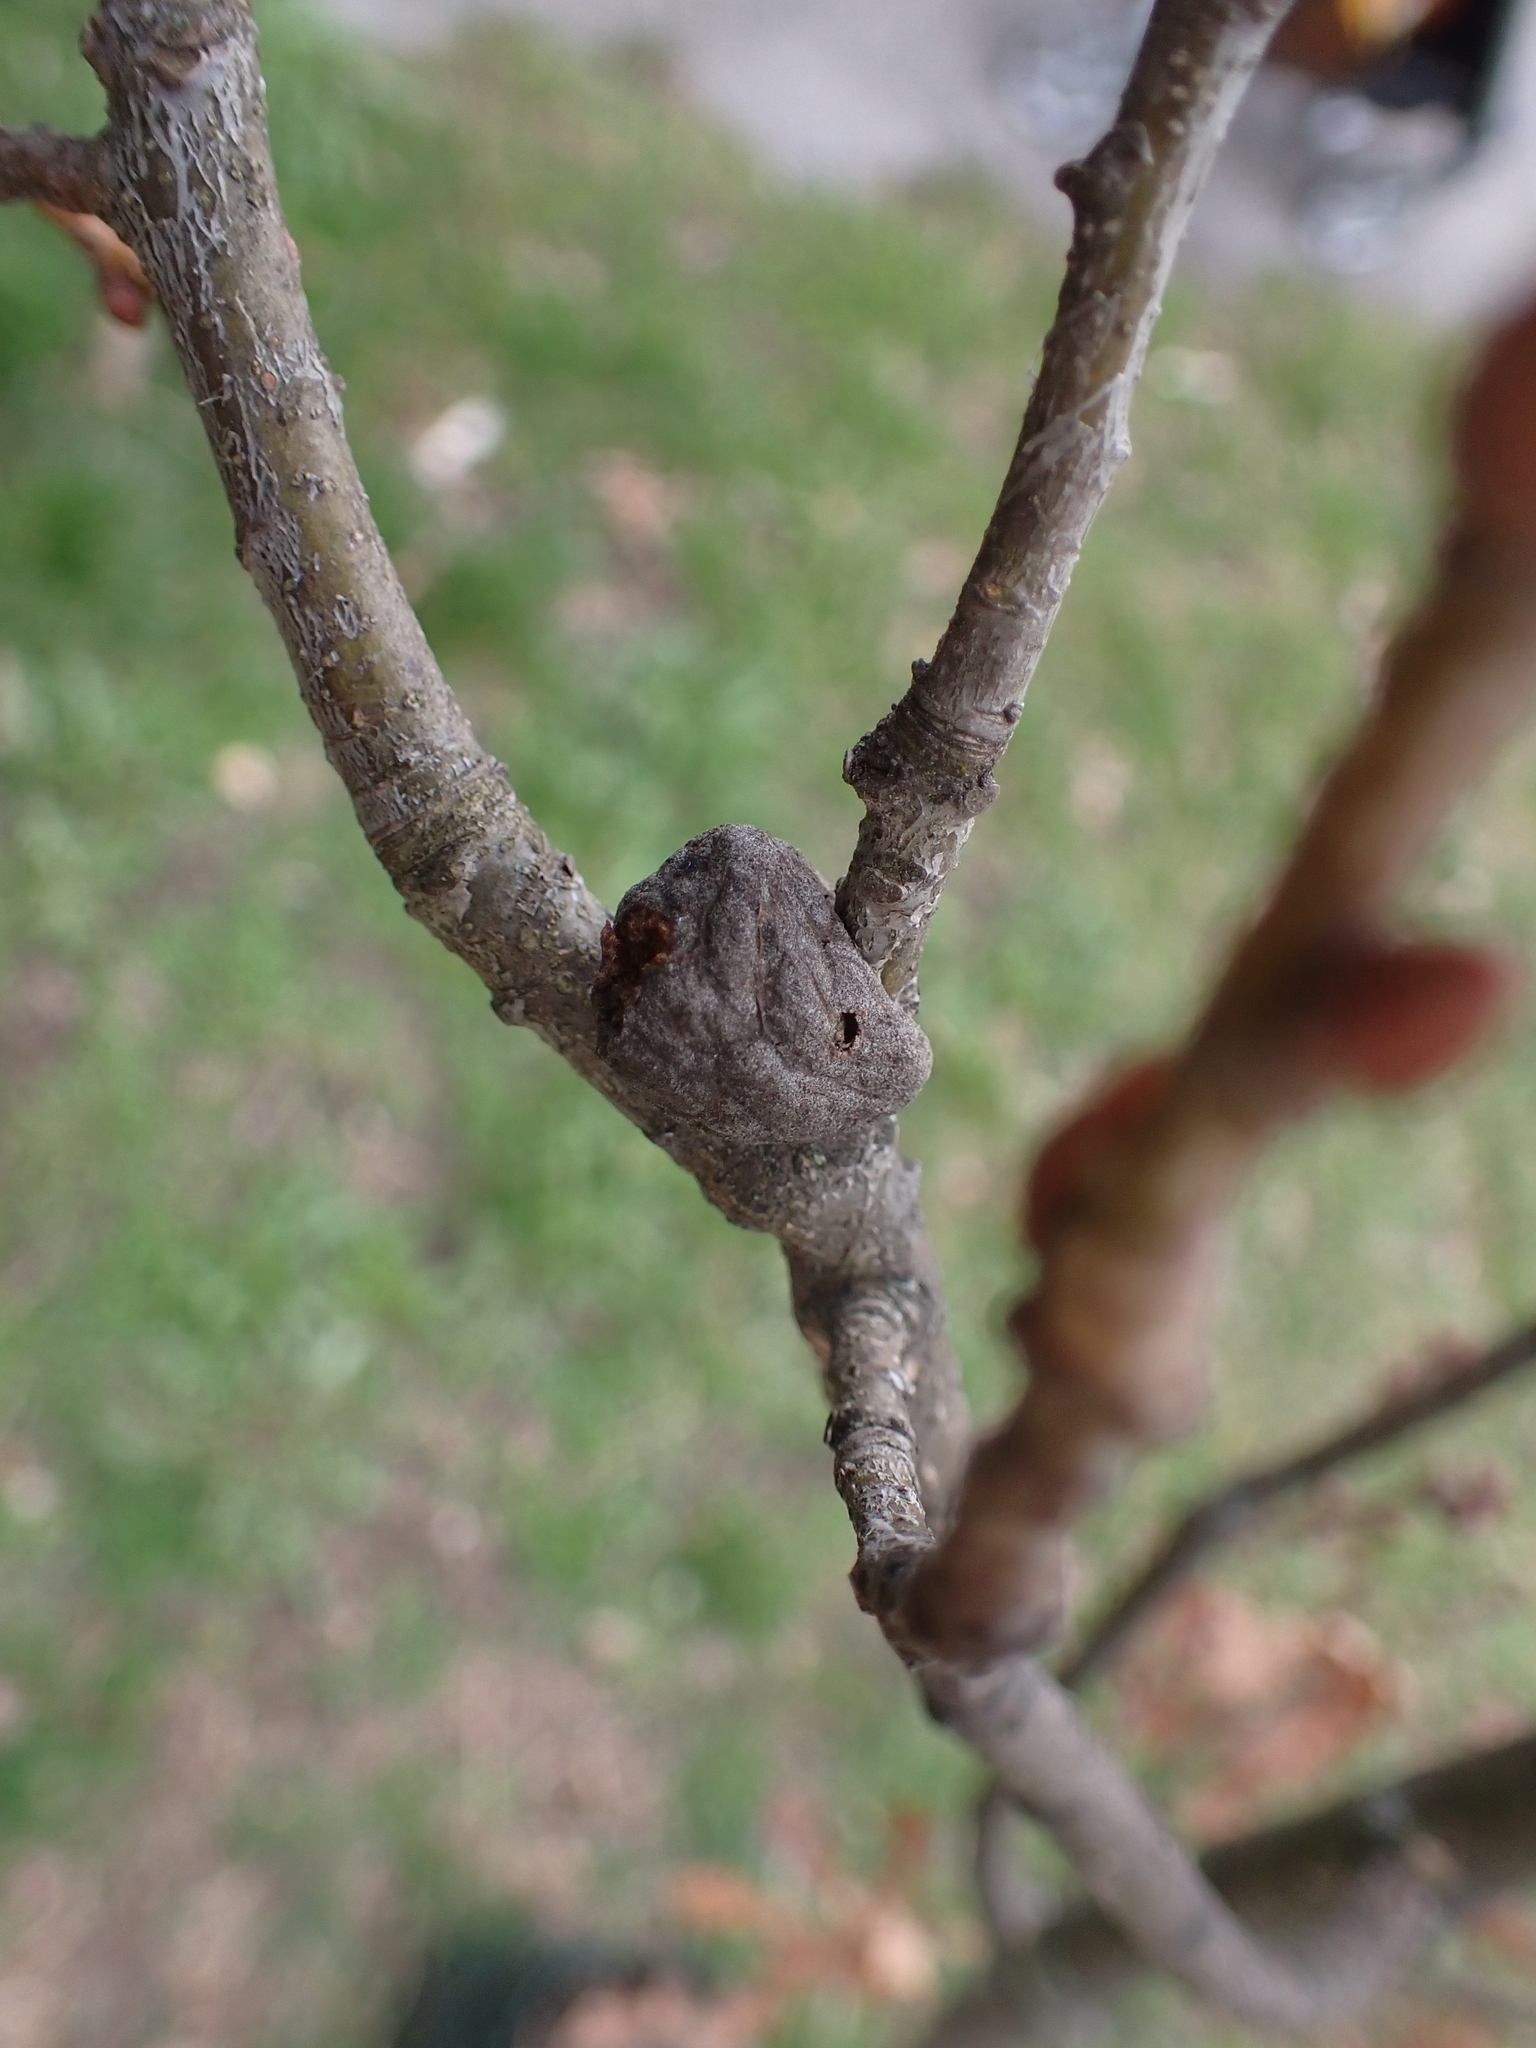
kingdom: Animalia
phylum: Arthropoda
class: Insecta
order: Hymenoptera
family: Cynipidae
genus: Andricus
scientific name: Andricus conificus
